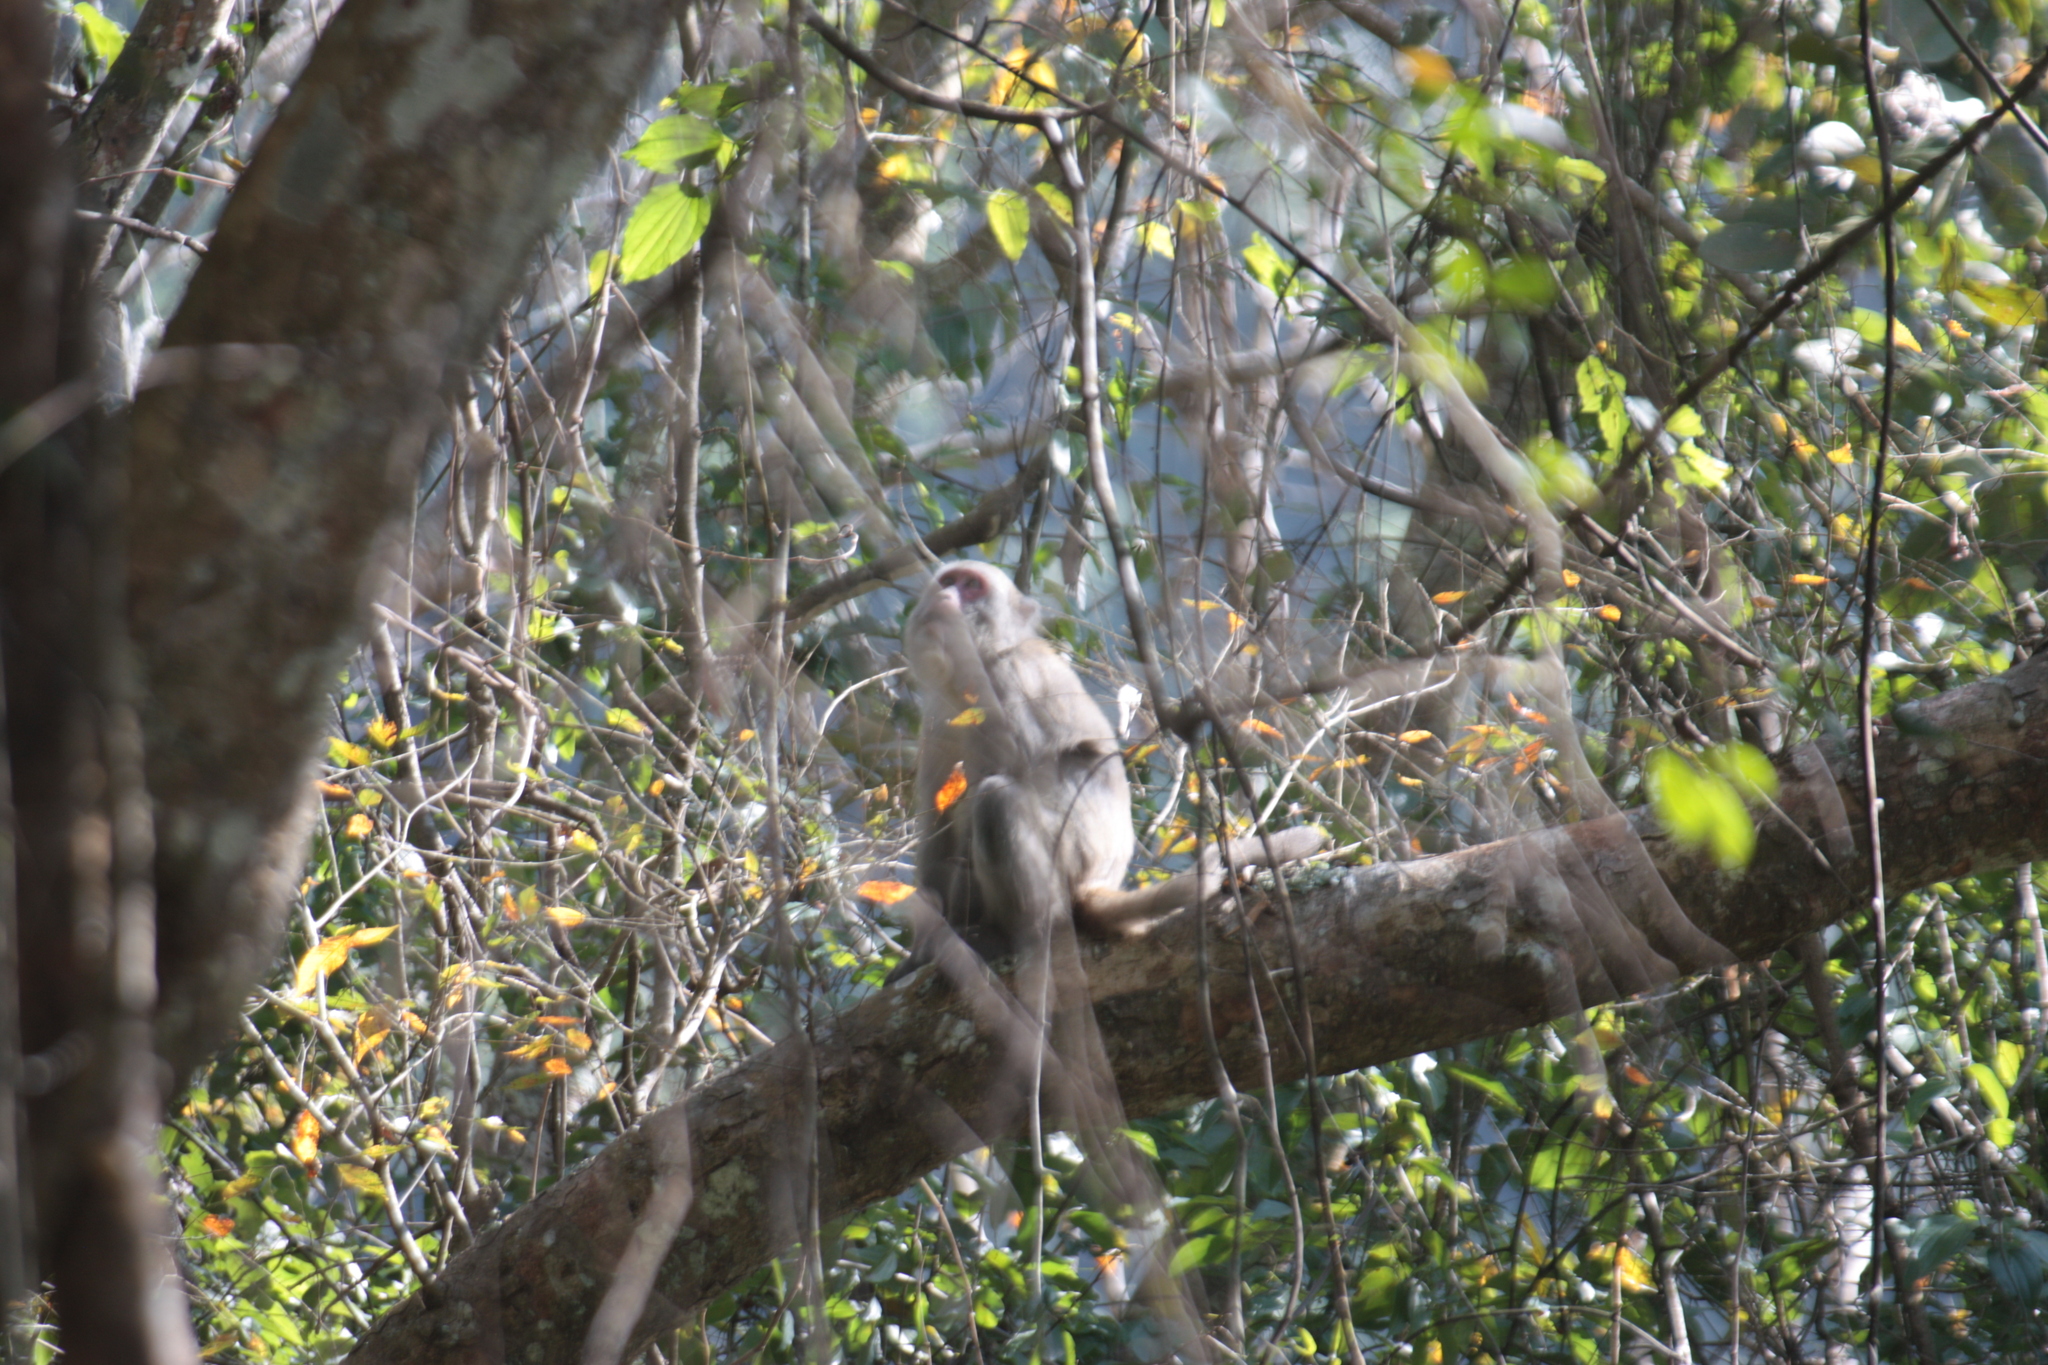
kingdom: Animalia
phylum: Chordata
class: Mammalia
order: Primates
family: Cercopithecidae
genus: Macaca
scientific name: Macaca cyclopis
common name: Formosan rock macaque
